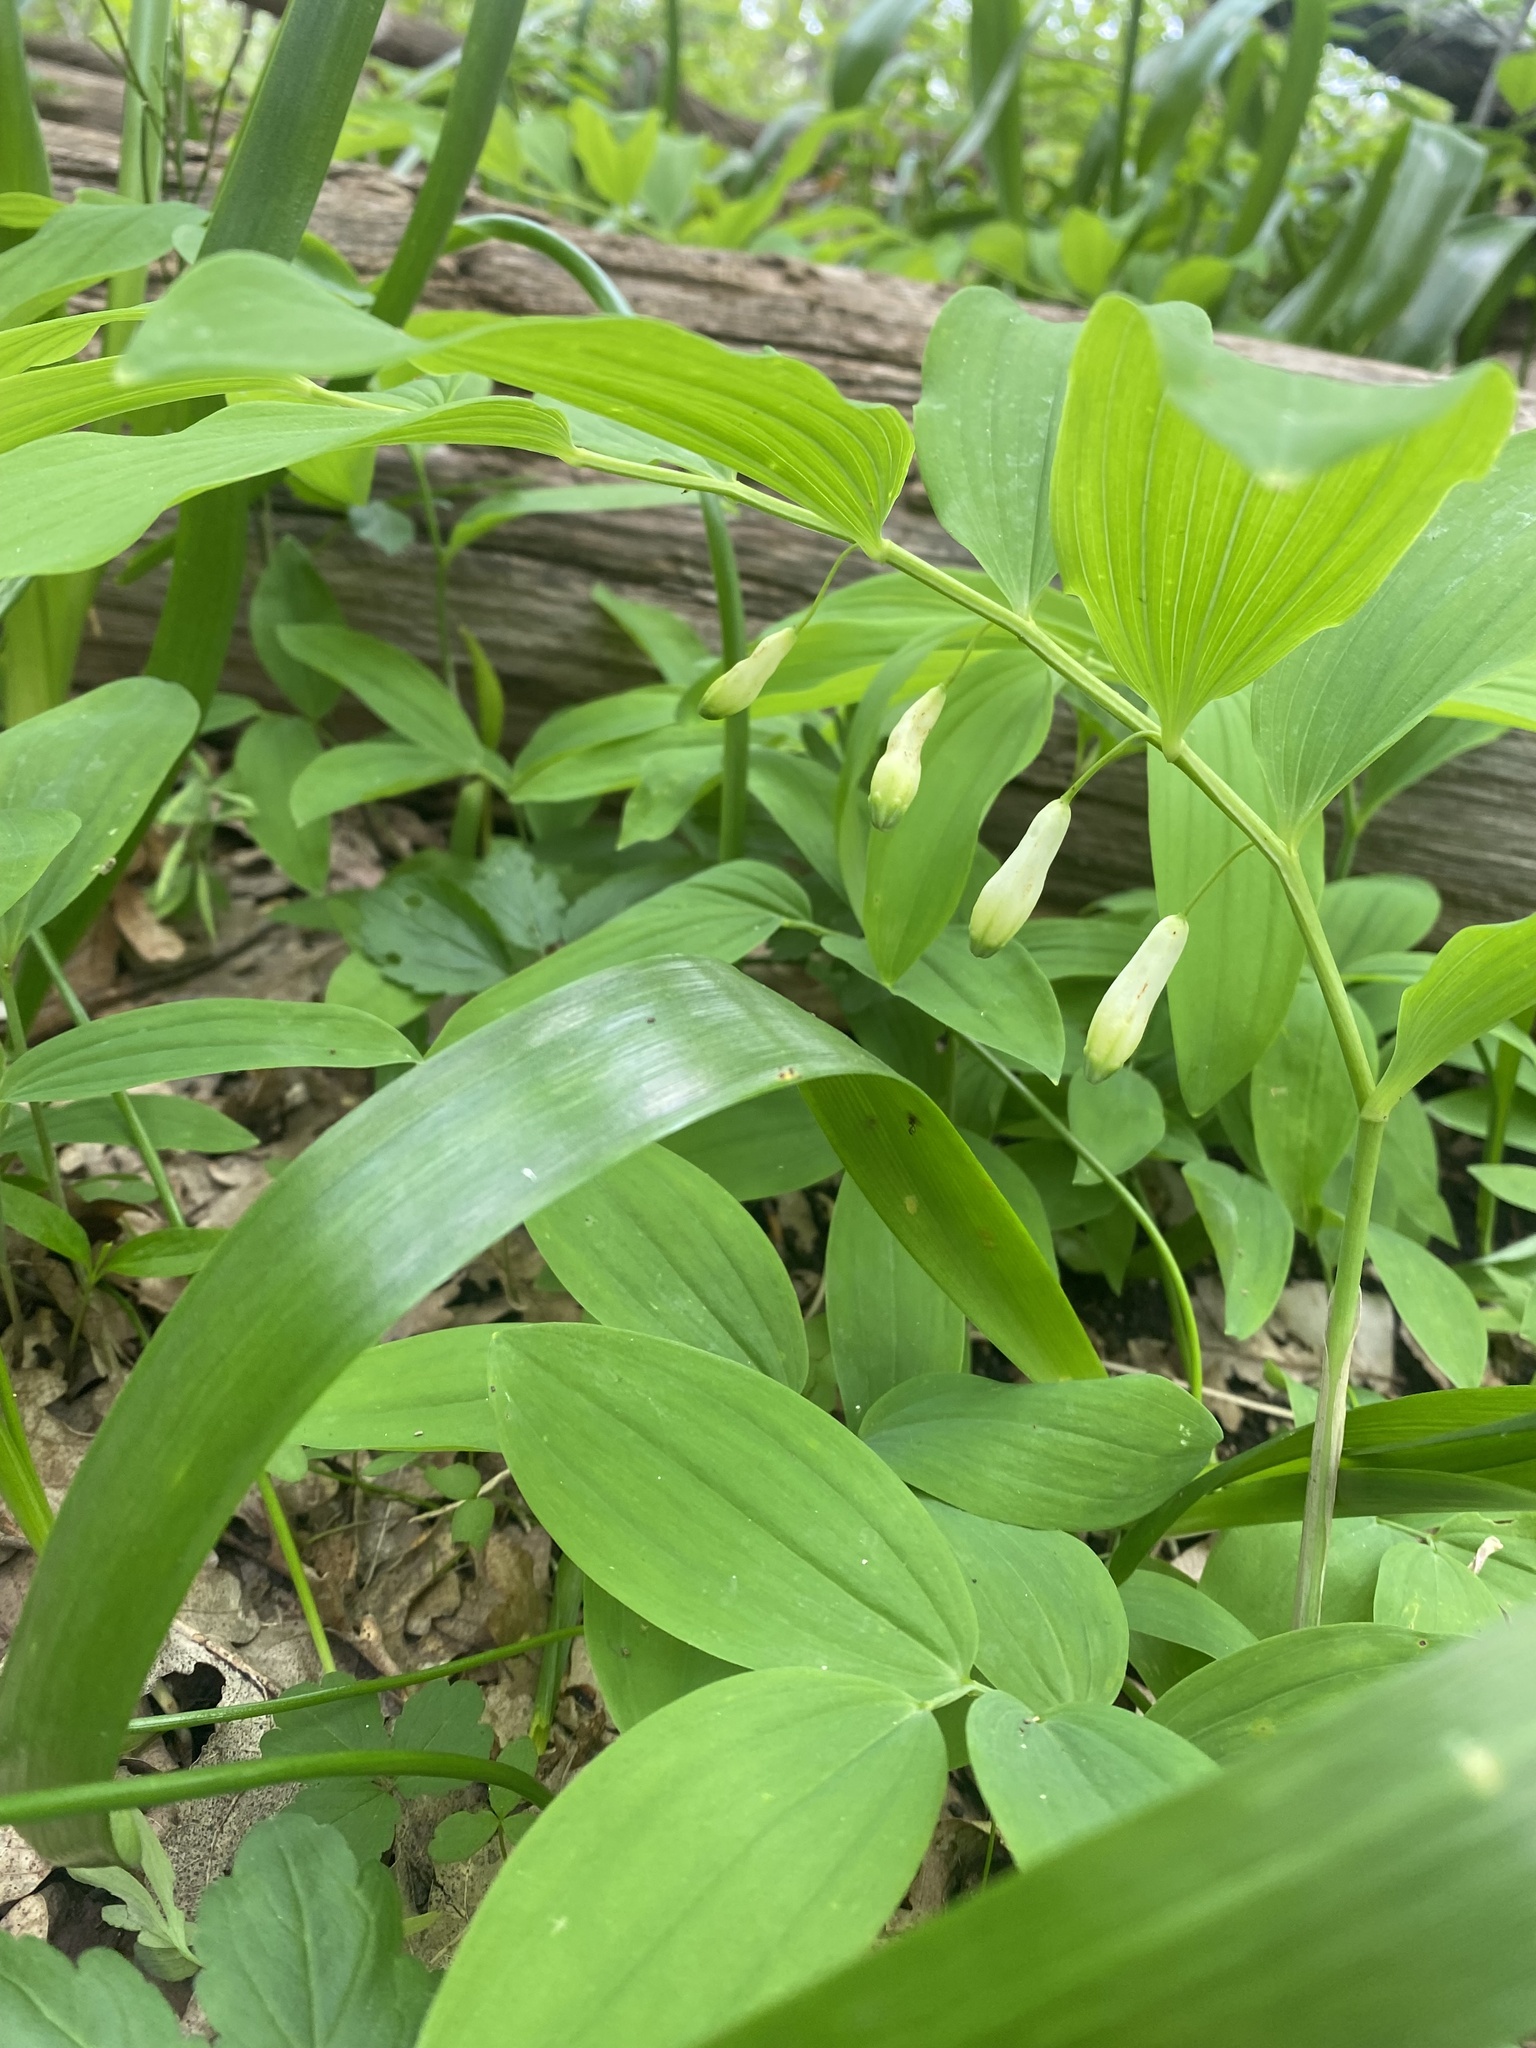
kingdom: Plantae
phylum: Tracheophyta
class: Liliopsida
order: Asparagales
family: Asparagaceae
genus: Polygonatum
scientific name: Polygonatum odoratum
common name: Angular solomon's-seal
